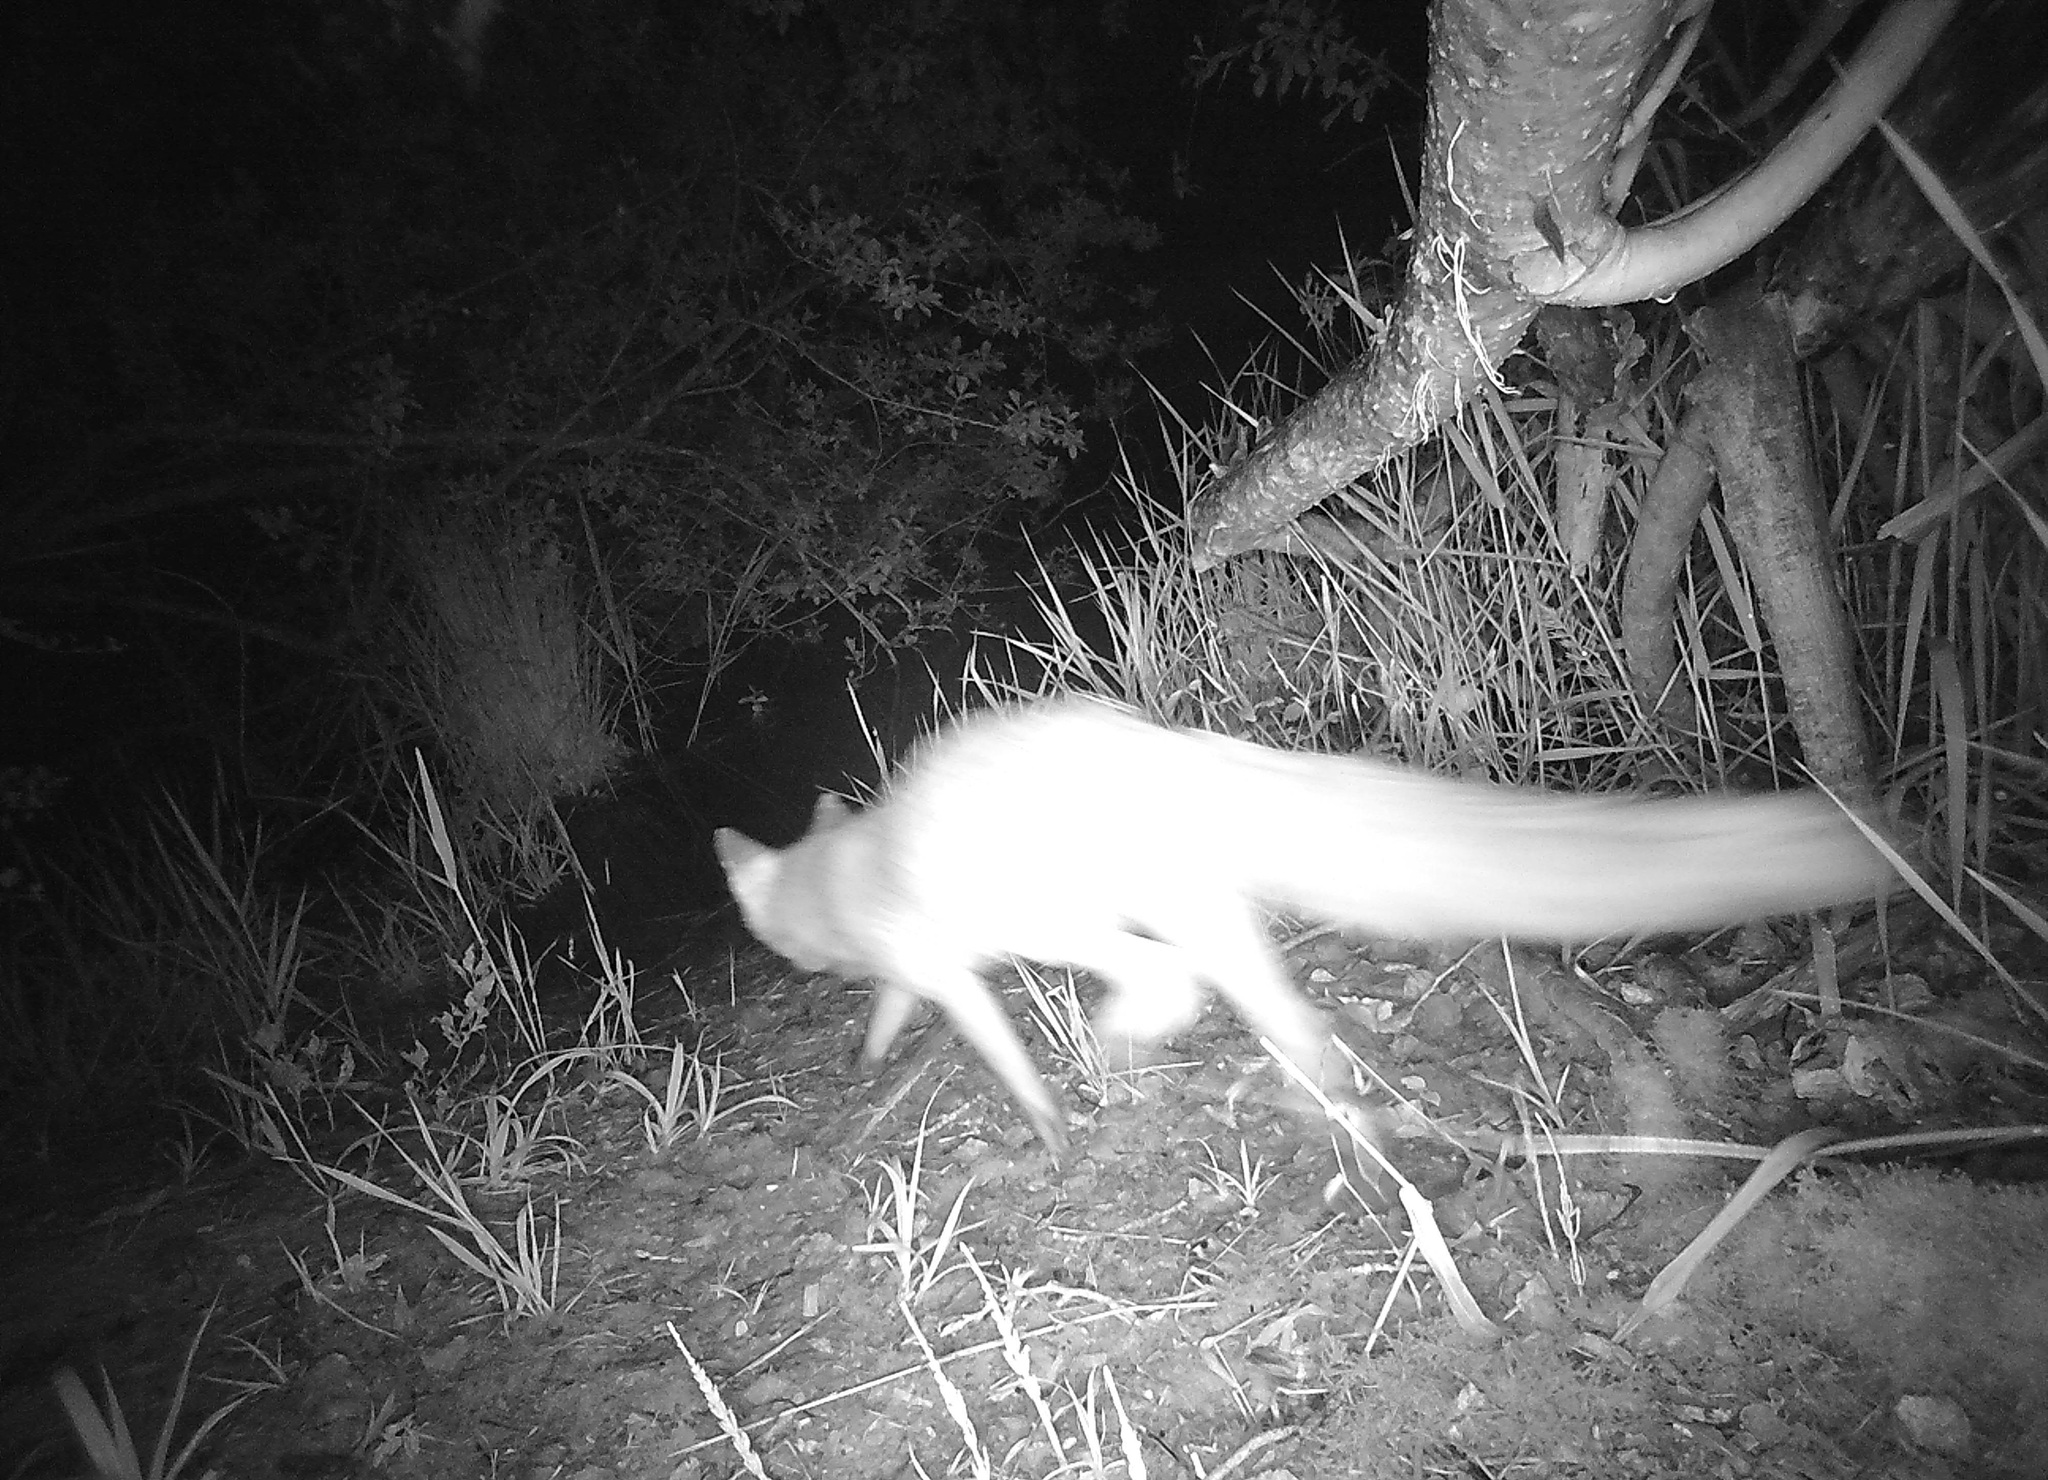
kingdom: Animalia
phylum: Chordata
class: Mammalia
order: Carnivora
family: Canidae
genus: Vulpes
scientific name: Vulpes vulpes
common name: Red fox
